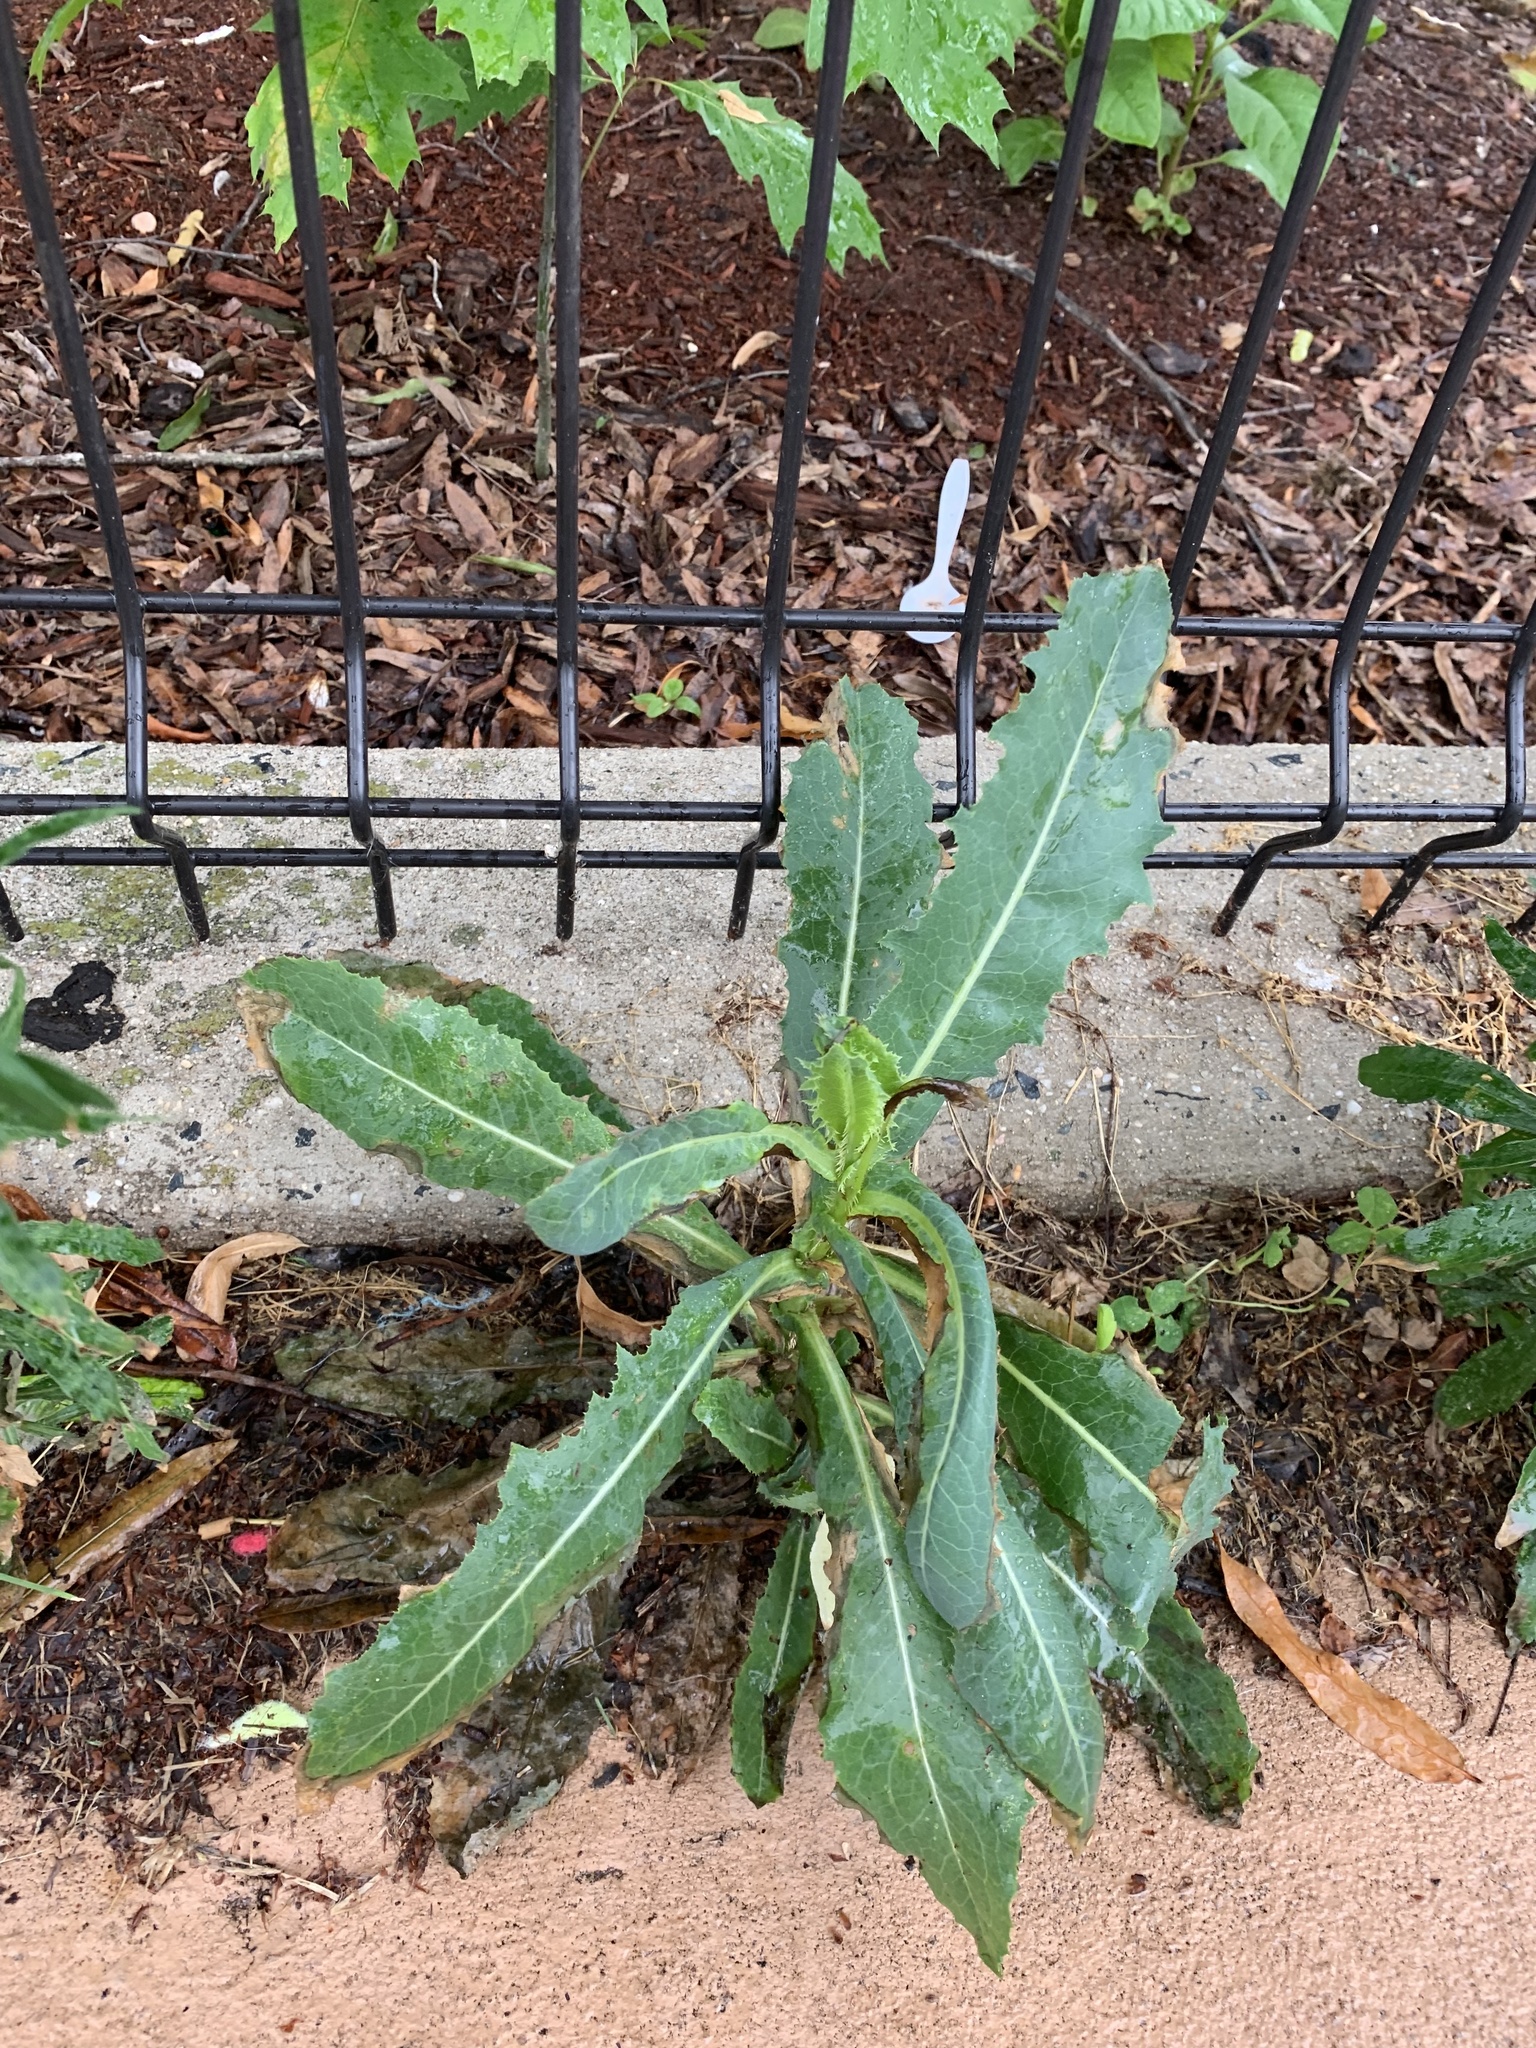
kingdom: Plantae
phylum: Tracheophyta
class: Magnoliopsida
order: Asterales
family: Asteraceae
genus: Lactuca
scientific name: Lactuca serriola
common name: Prickly lettuce
